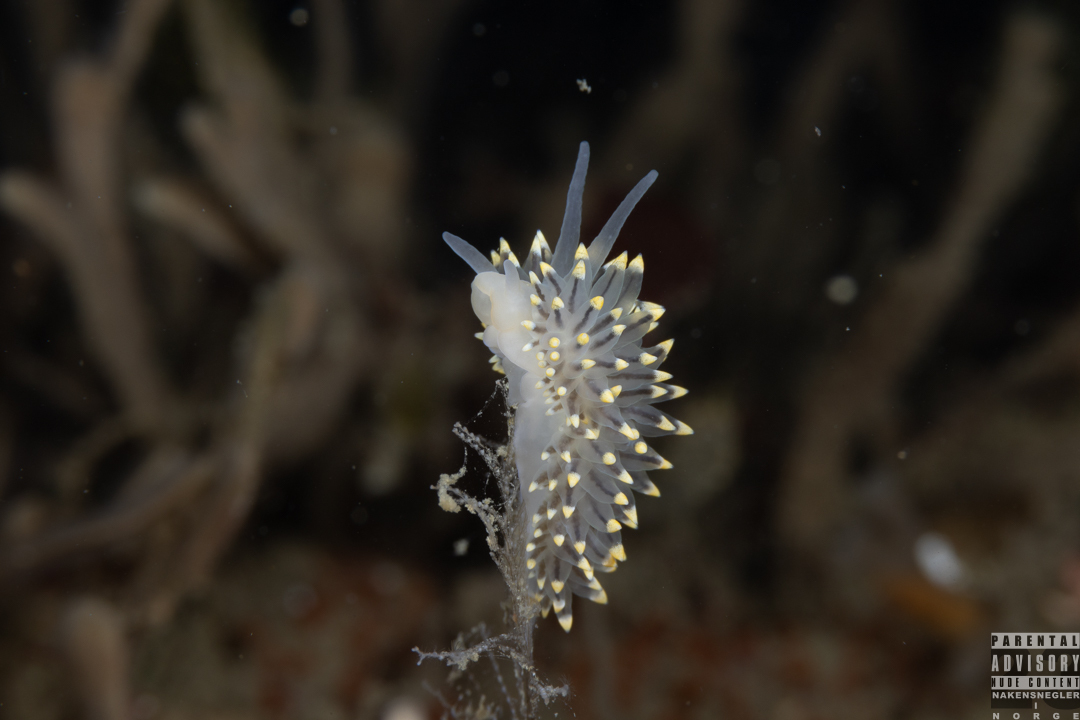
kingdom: Animalia
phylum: Mollusca
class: Gastropoda
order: Nudibranchia
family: Eubranchidae
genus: Eubranchus
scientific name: Eubranchus tricolor
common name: Painted balloon aeolis
